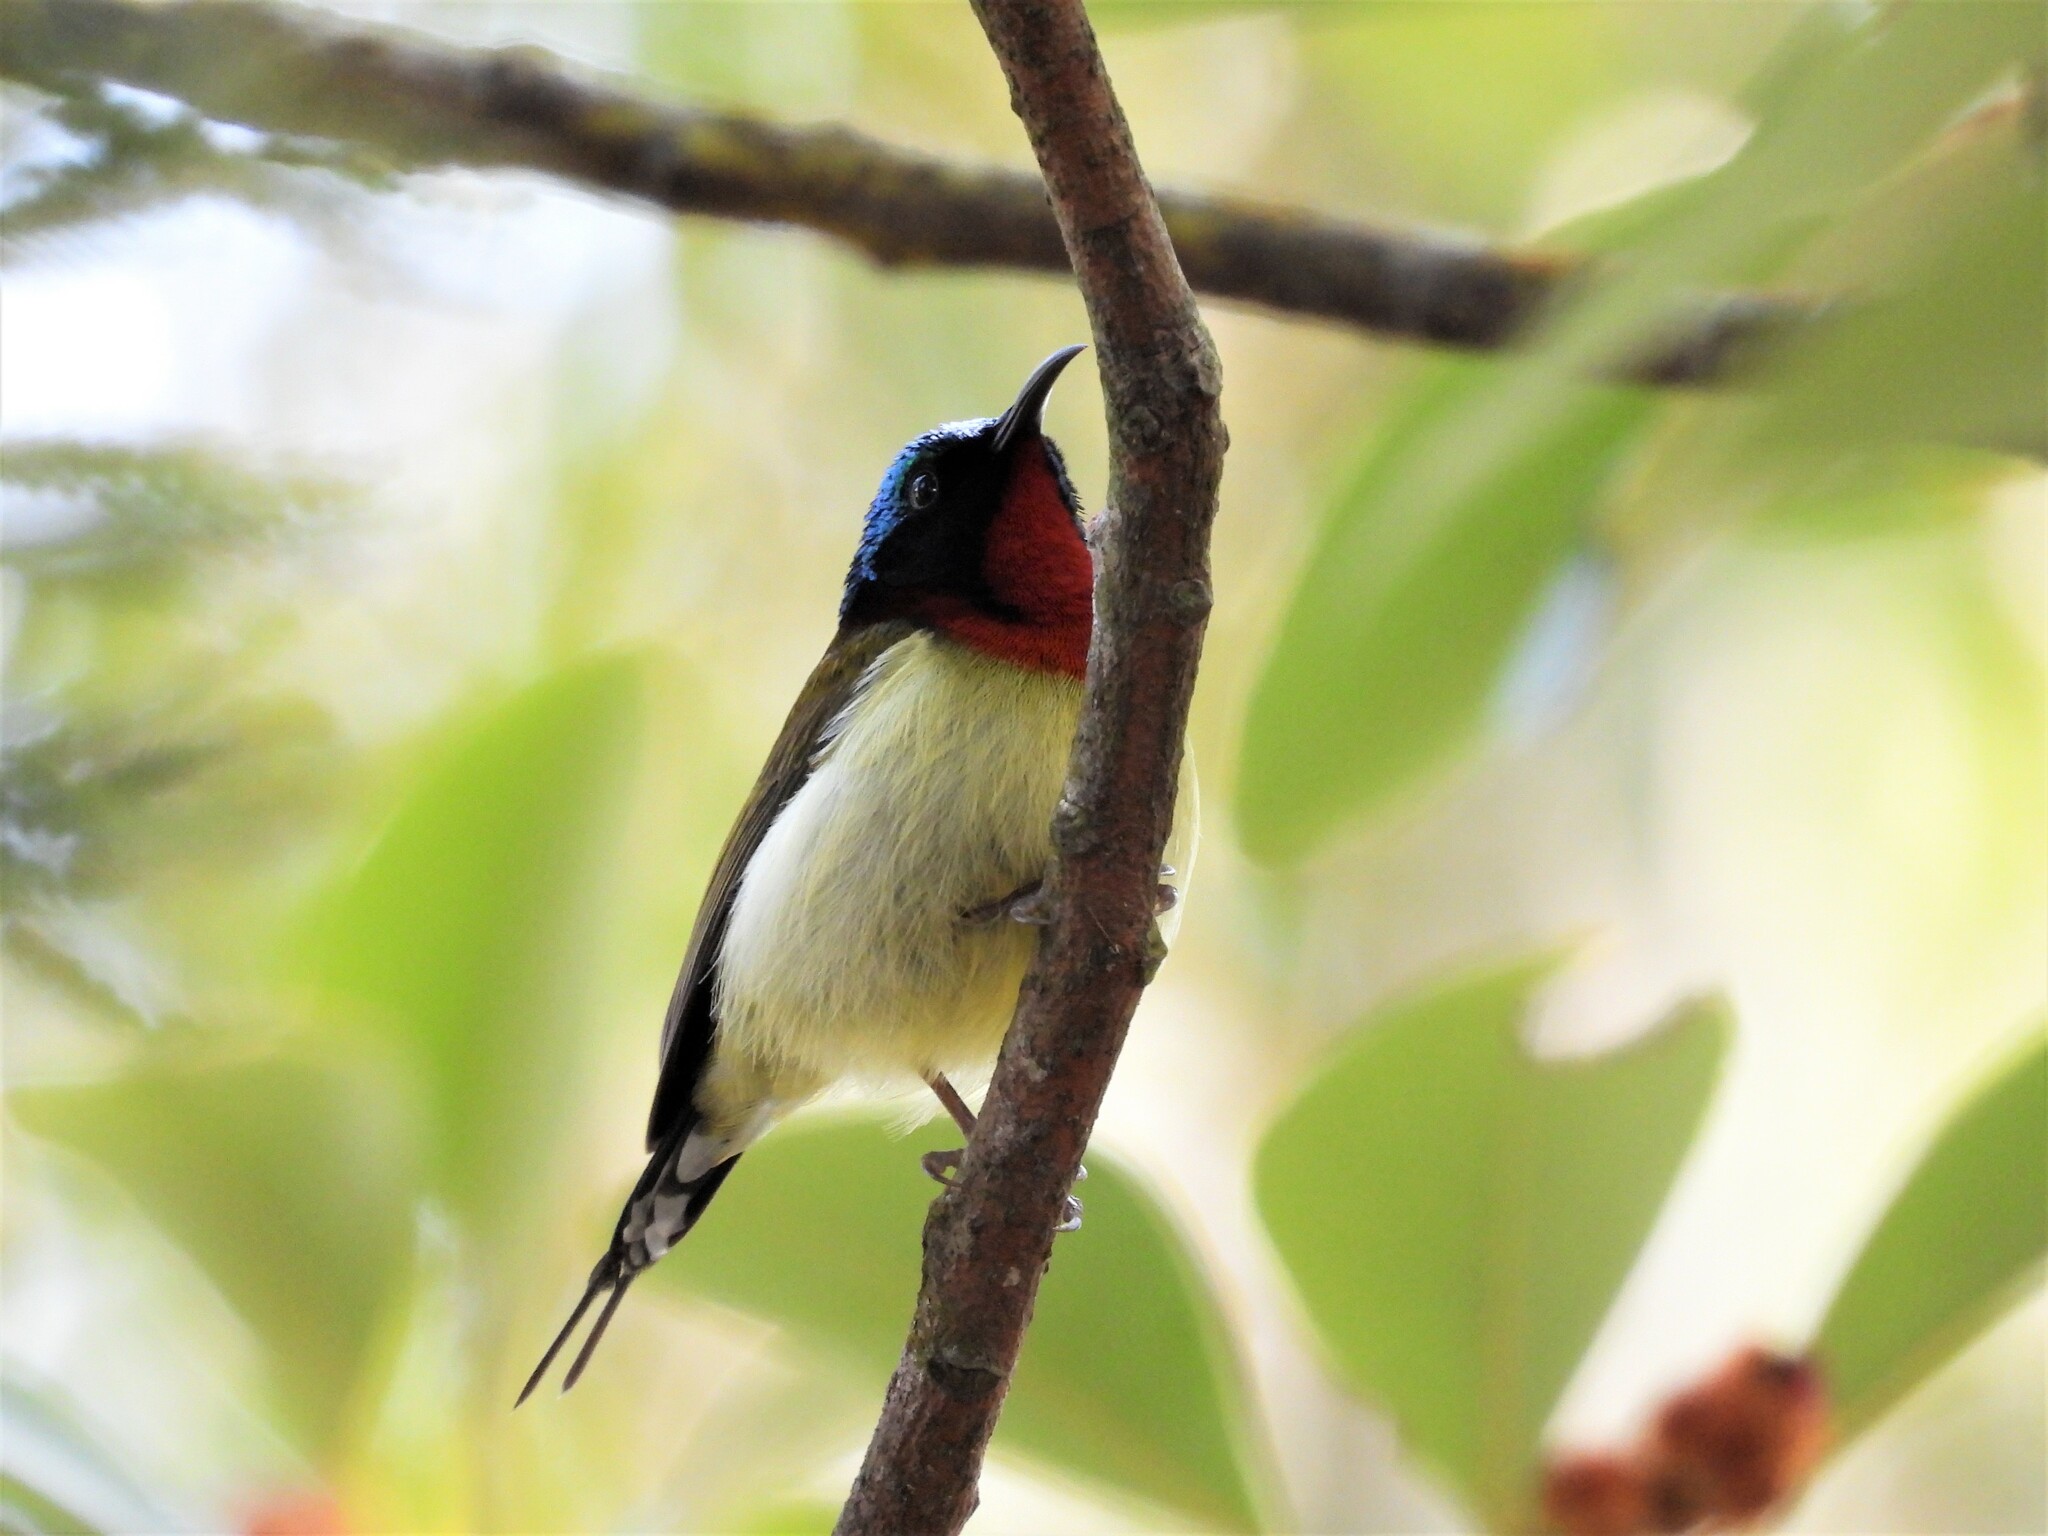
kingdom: Animalia
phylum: Chordata
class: Aves
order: Passeriformes
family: Nectariniidae
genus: Aethopyga
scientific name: Aethopyga christinae
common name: Fork-tailed sunbird
